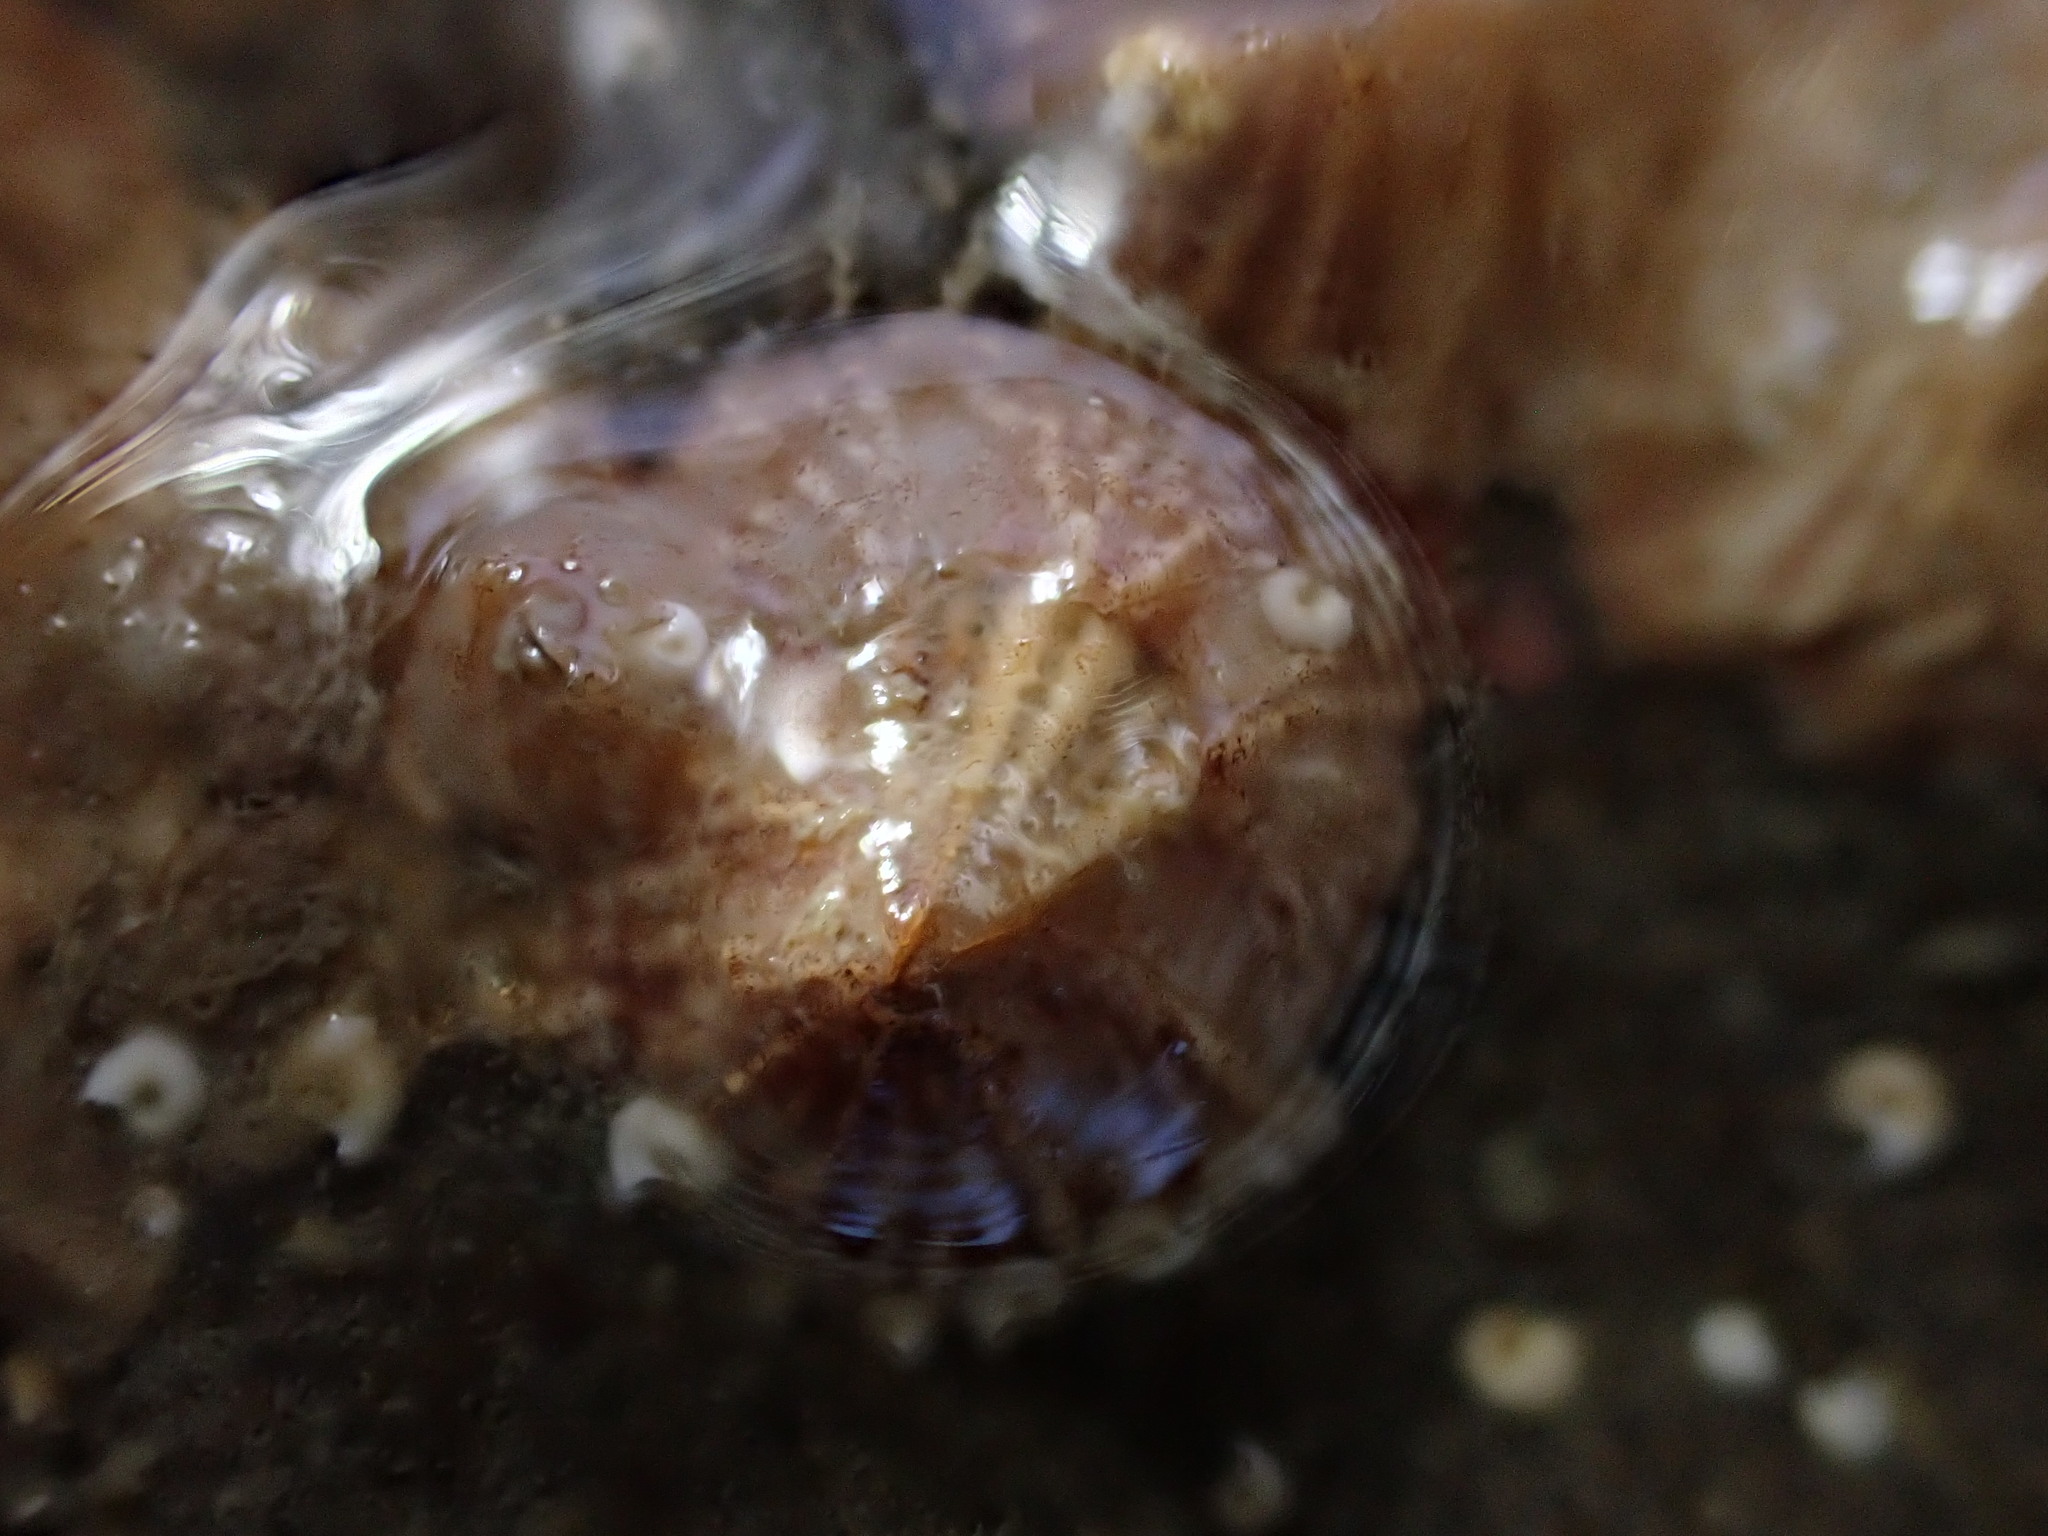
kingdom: Animalia
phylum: Arthropoda
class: Maxillopoda
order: Sessilia
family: Balanidae
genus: Balanus
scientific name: Balanus trigonus
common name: Triangle barnacle
